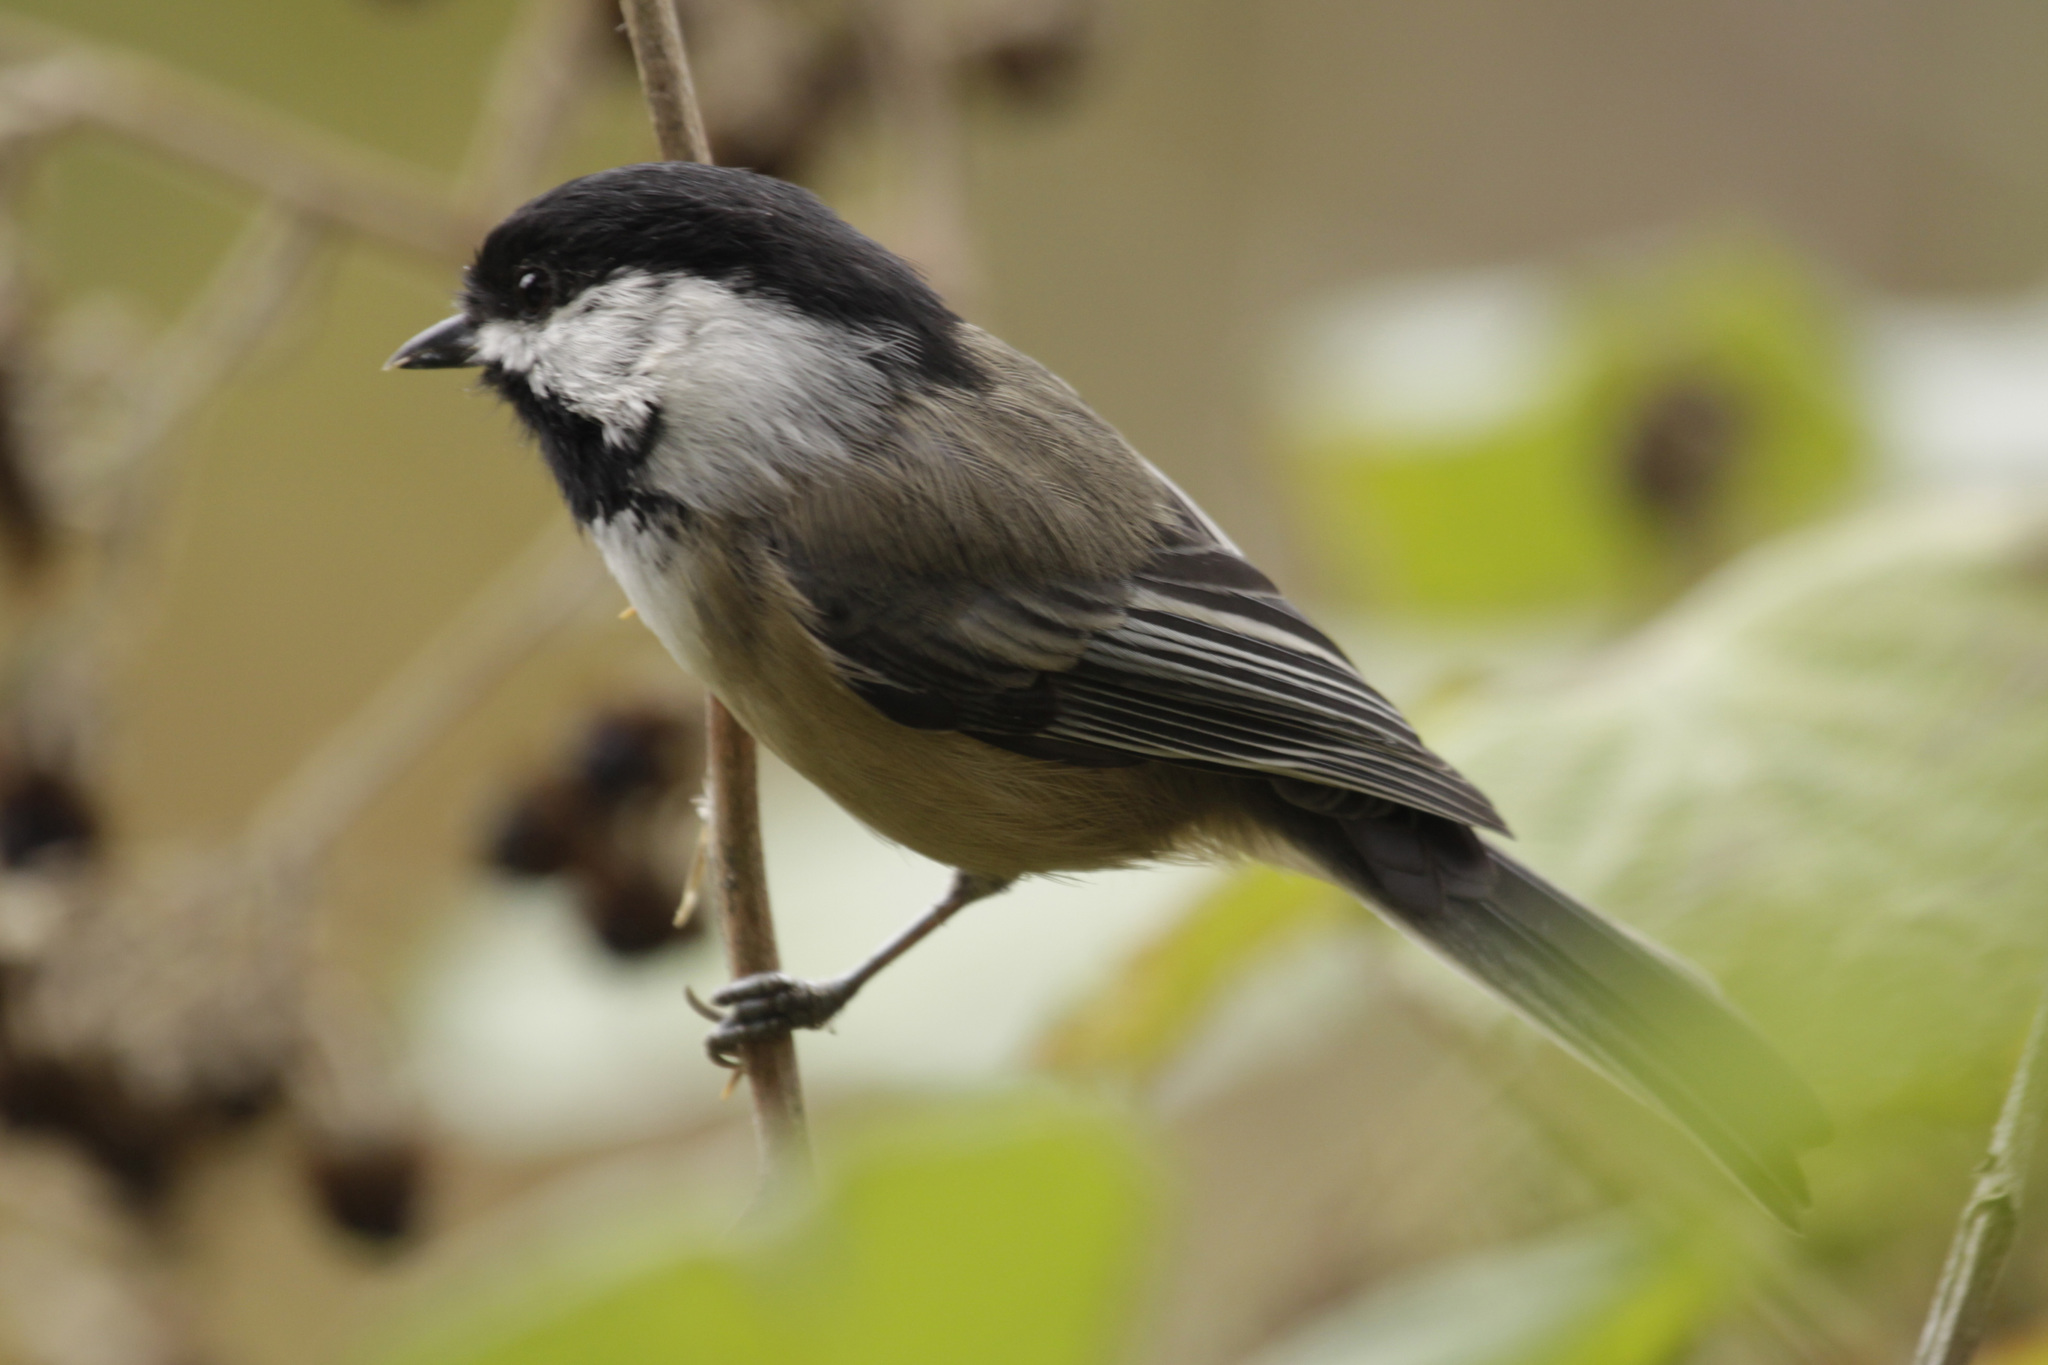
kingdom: Animalia
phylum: Chordata
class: Aves
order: Passeriformes
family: Paridae
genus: Poecile
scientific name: Poecile atricapillus
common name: Black-capped chickadee
